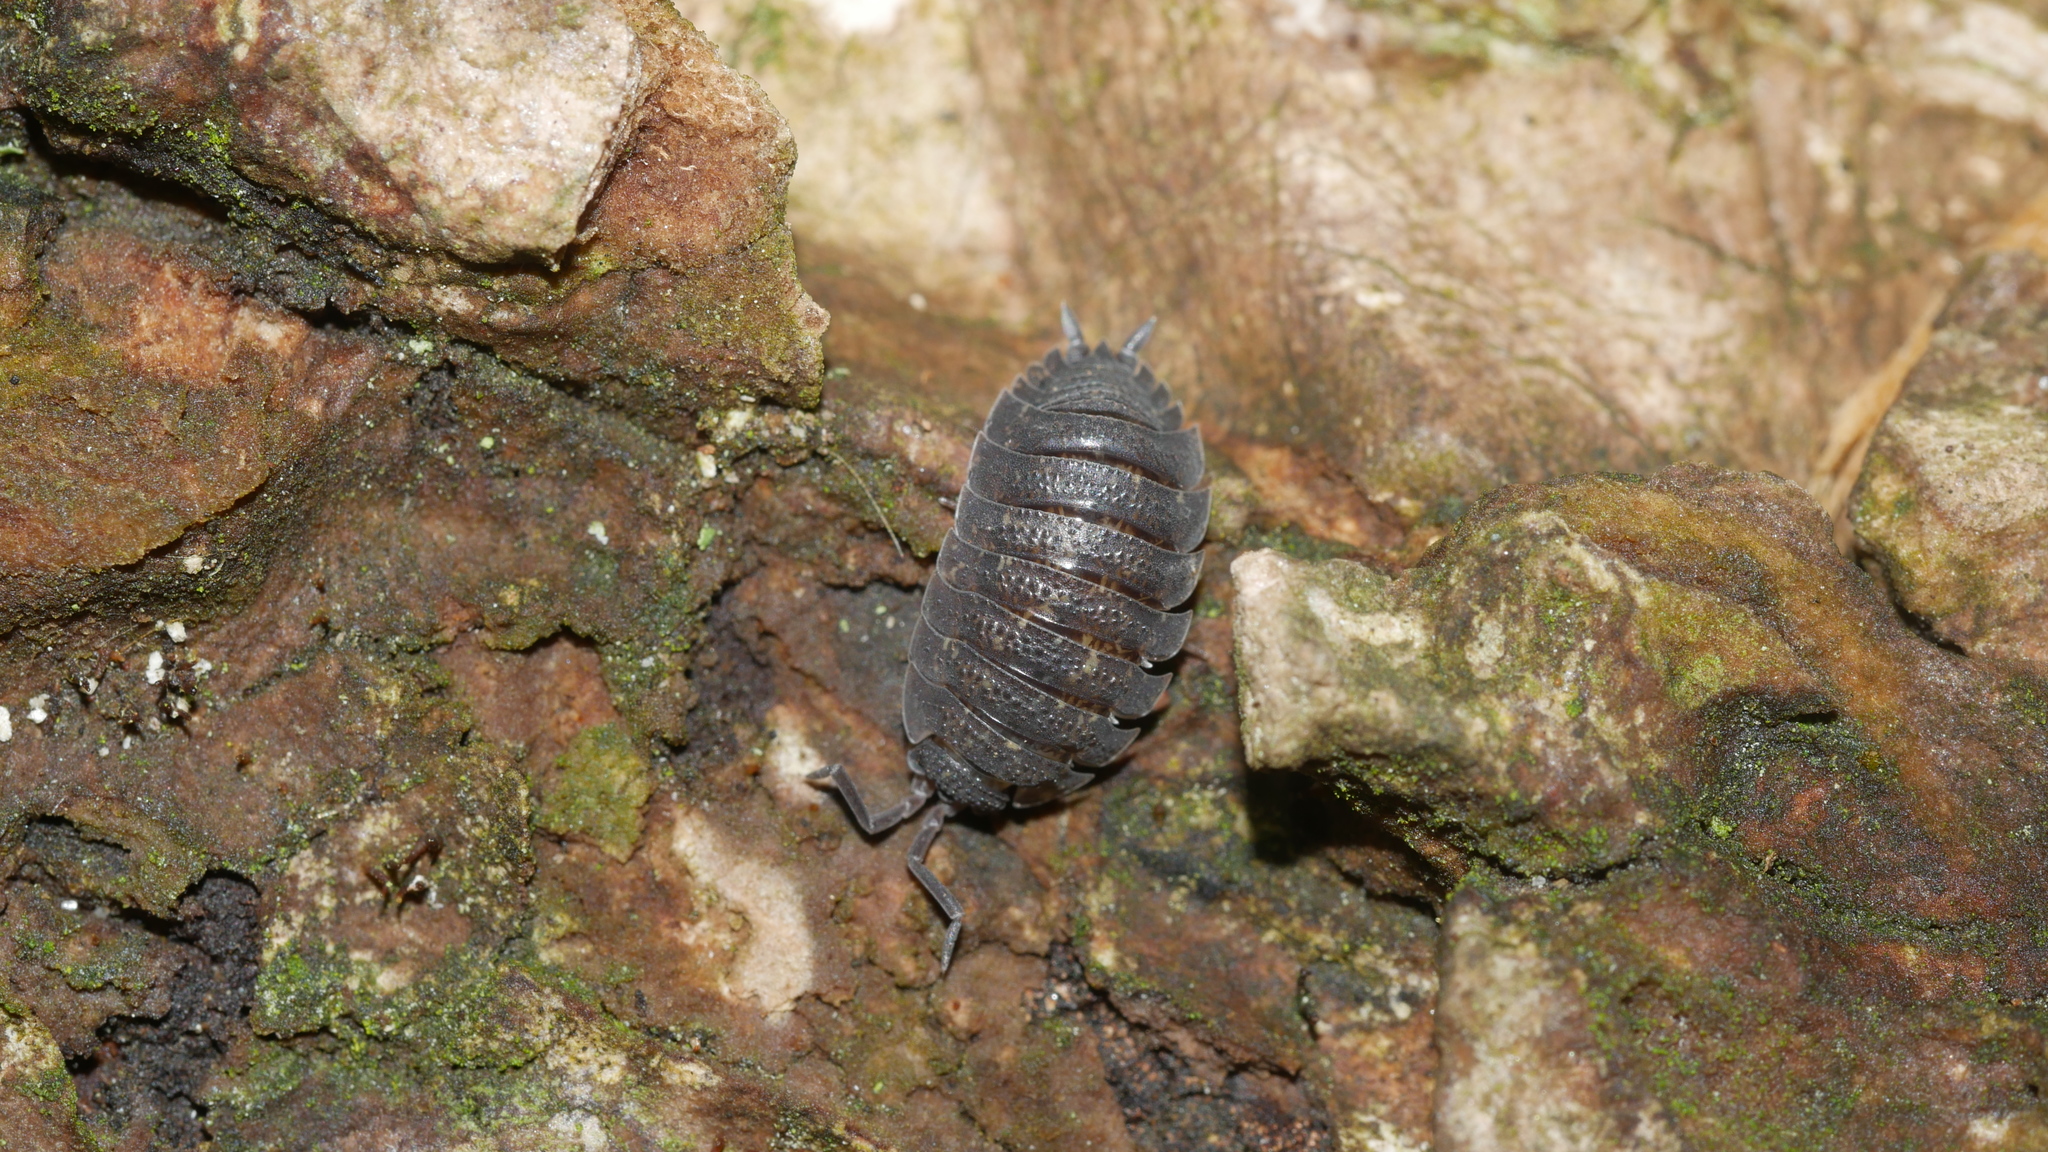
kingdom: Animalia
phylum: Arthropoda
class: Malacostraca
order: Isopoda
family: Porcellionidae
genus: Porcellio
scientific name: Porcellio scaber
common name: Common rough woodlouse
